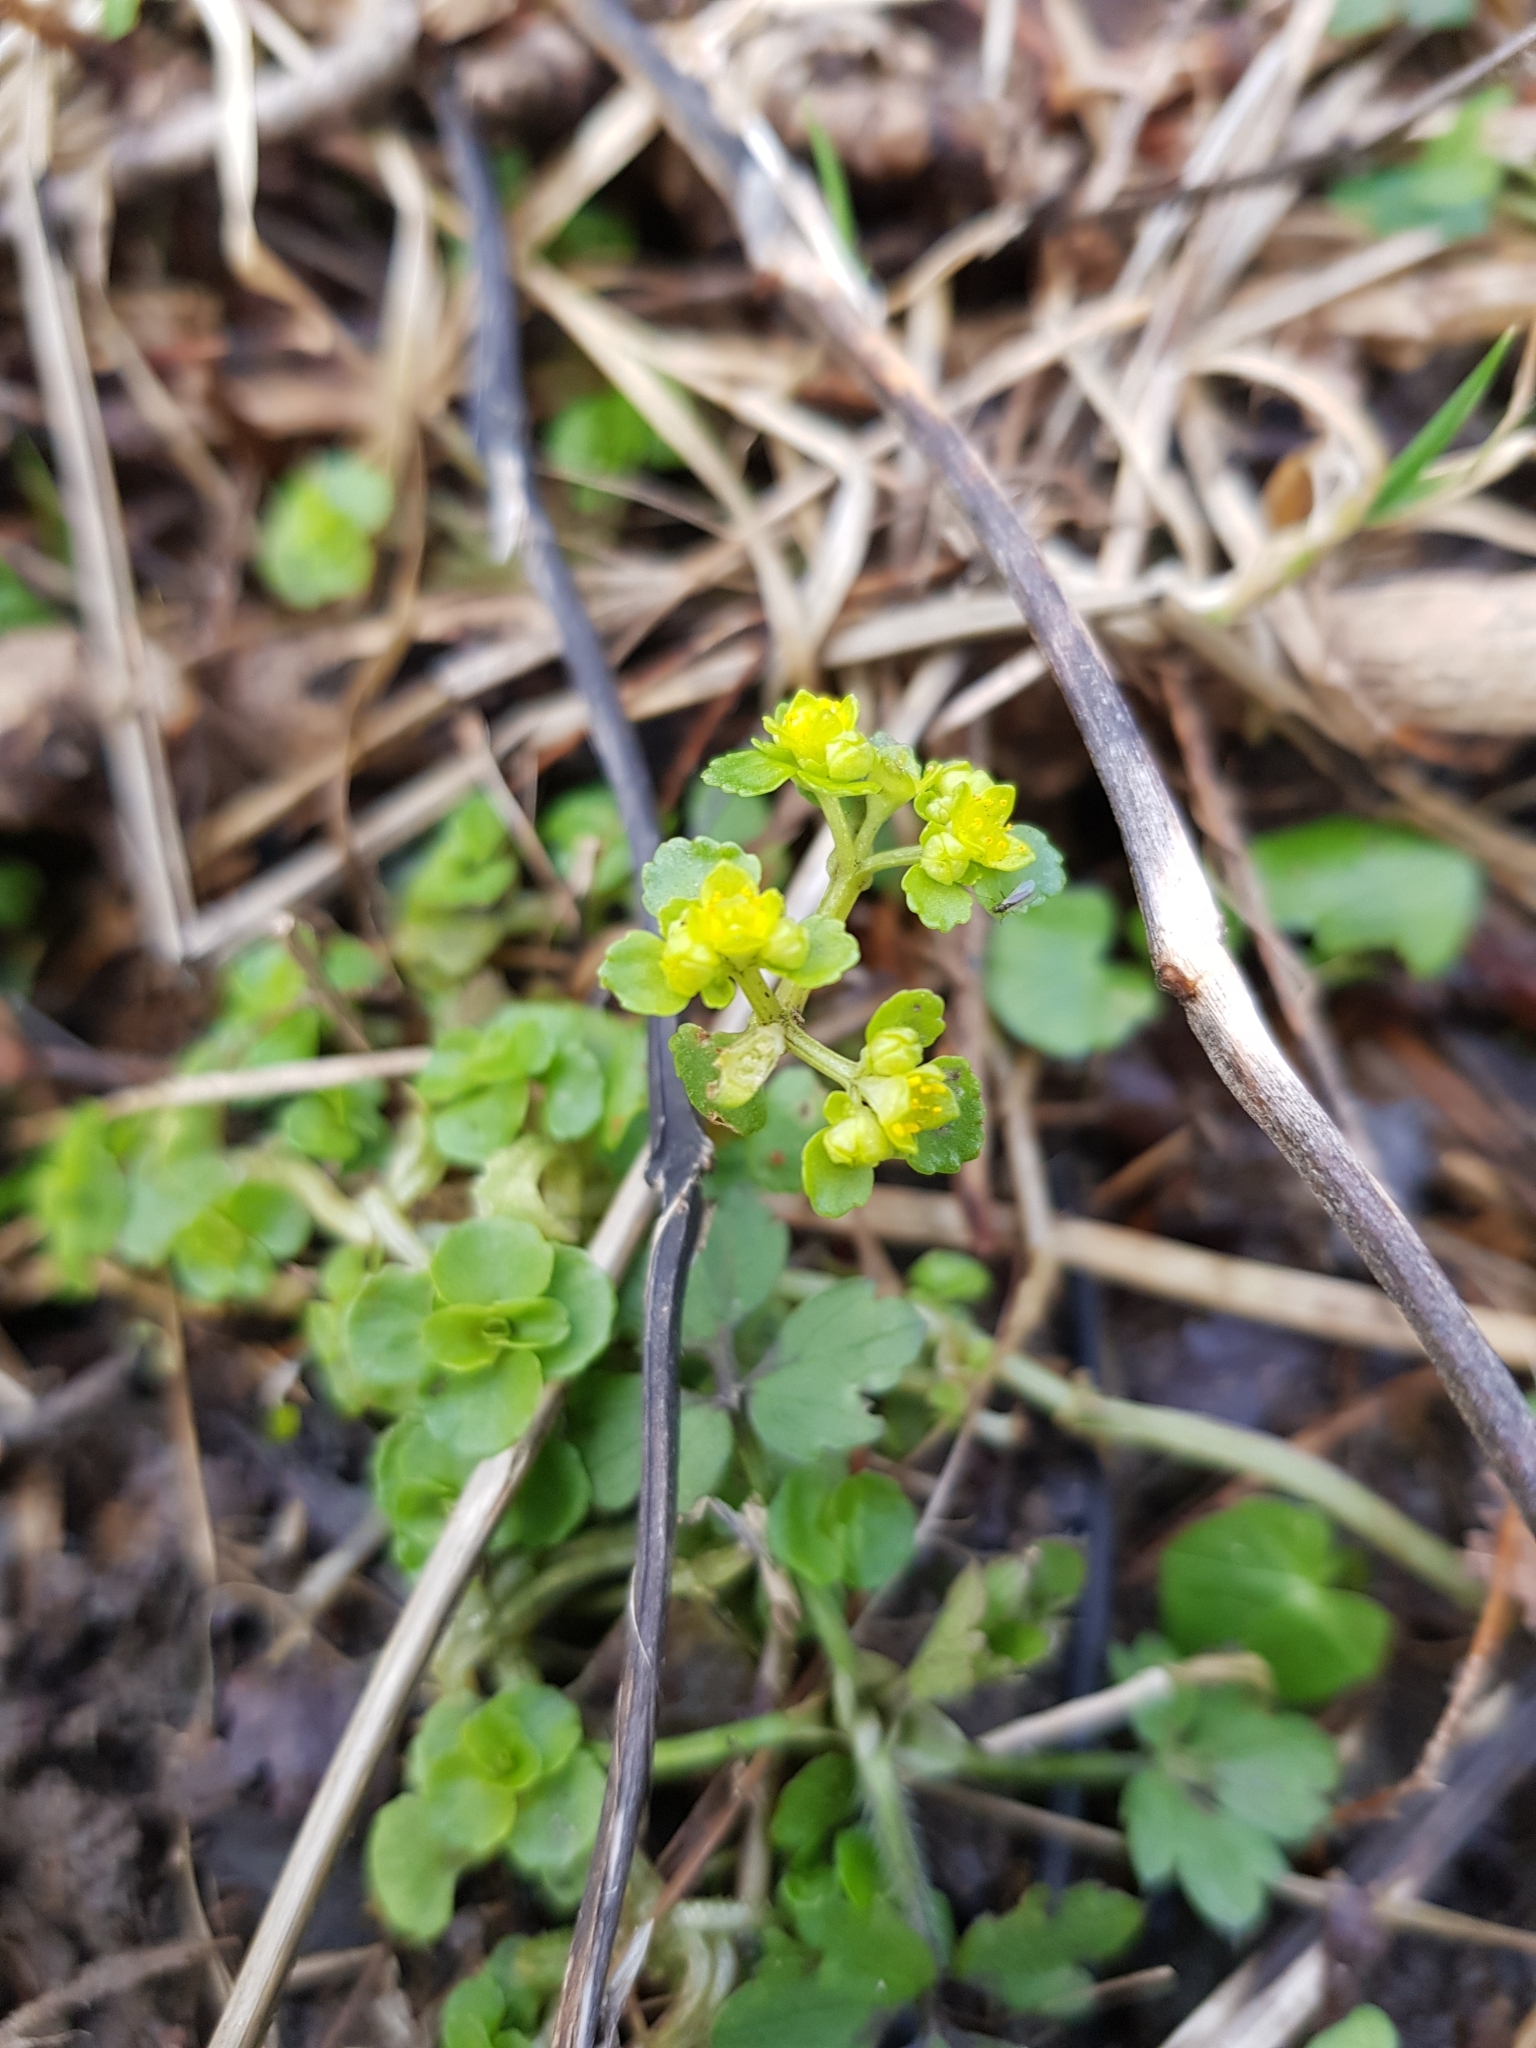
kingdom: Plantae
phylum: Tracheophyta
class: Magnoliopsida
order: Saxifragales
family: Saxifragaceae
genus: Chrysosplenium
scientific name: Chrysosplenium oppositifolium
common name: Opposite-leaved golden-saxifrage
